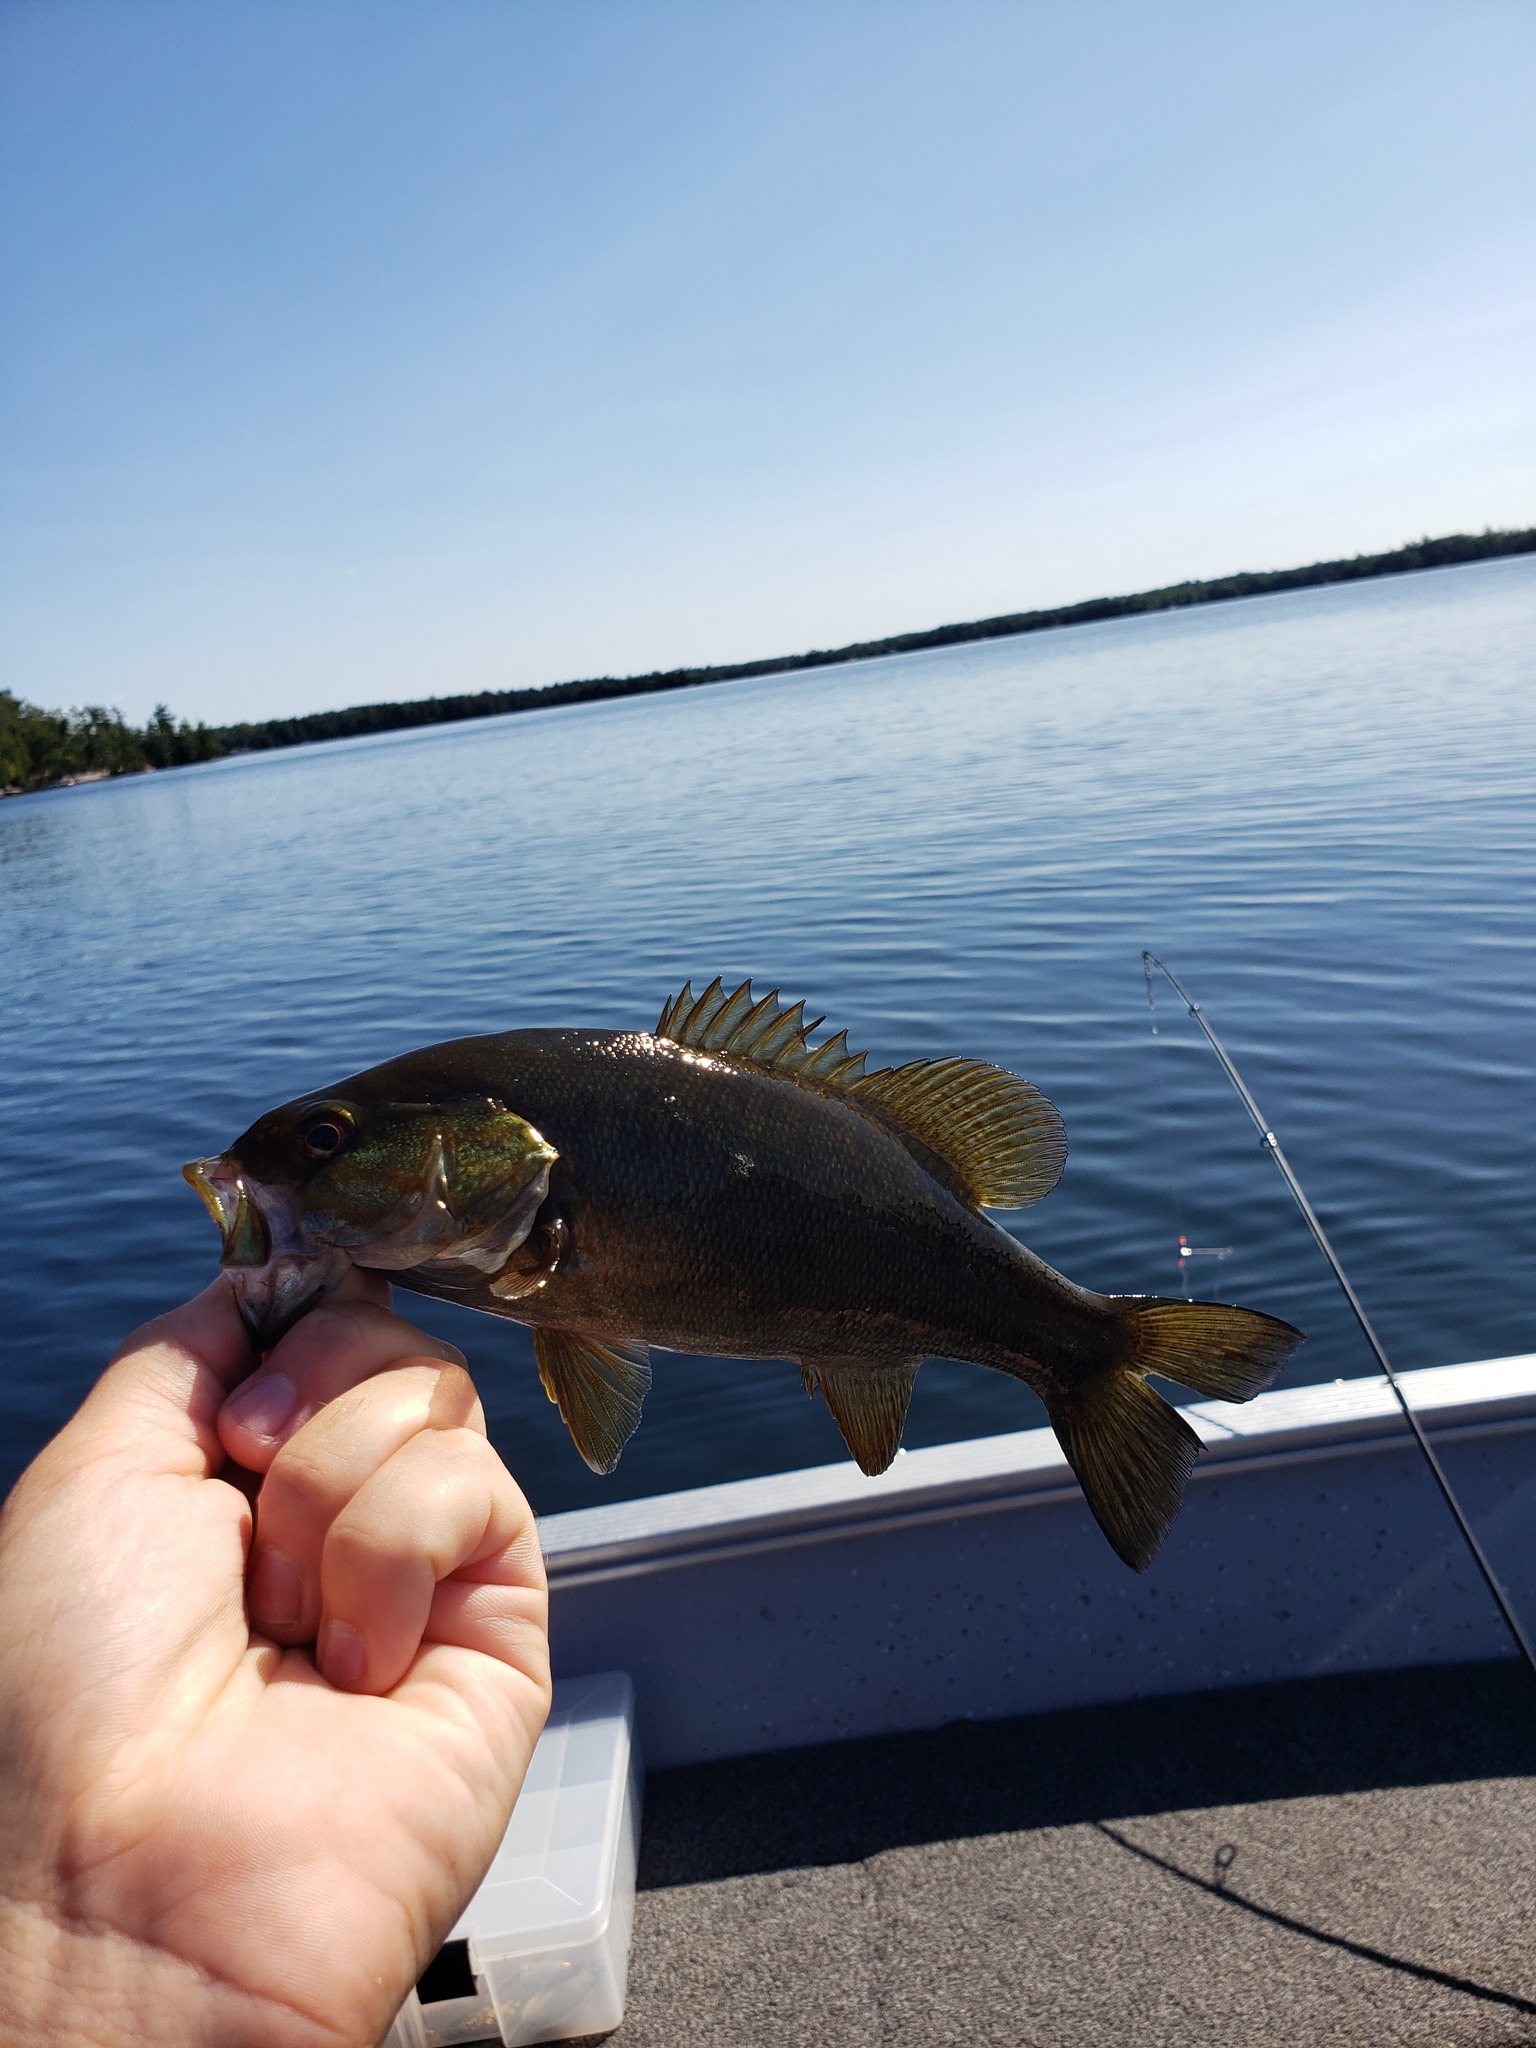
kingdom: Animalia
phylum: Chordata
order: Perciformes
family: Centrarchidae
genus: Micropterus
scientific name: Micropterus dolomieu
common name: Smallmouth bass
